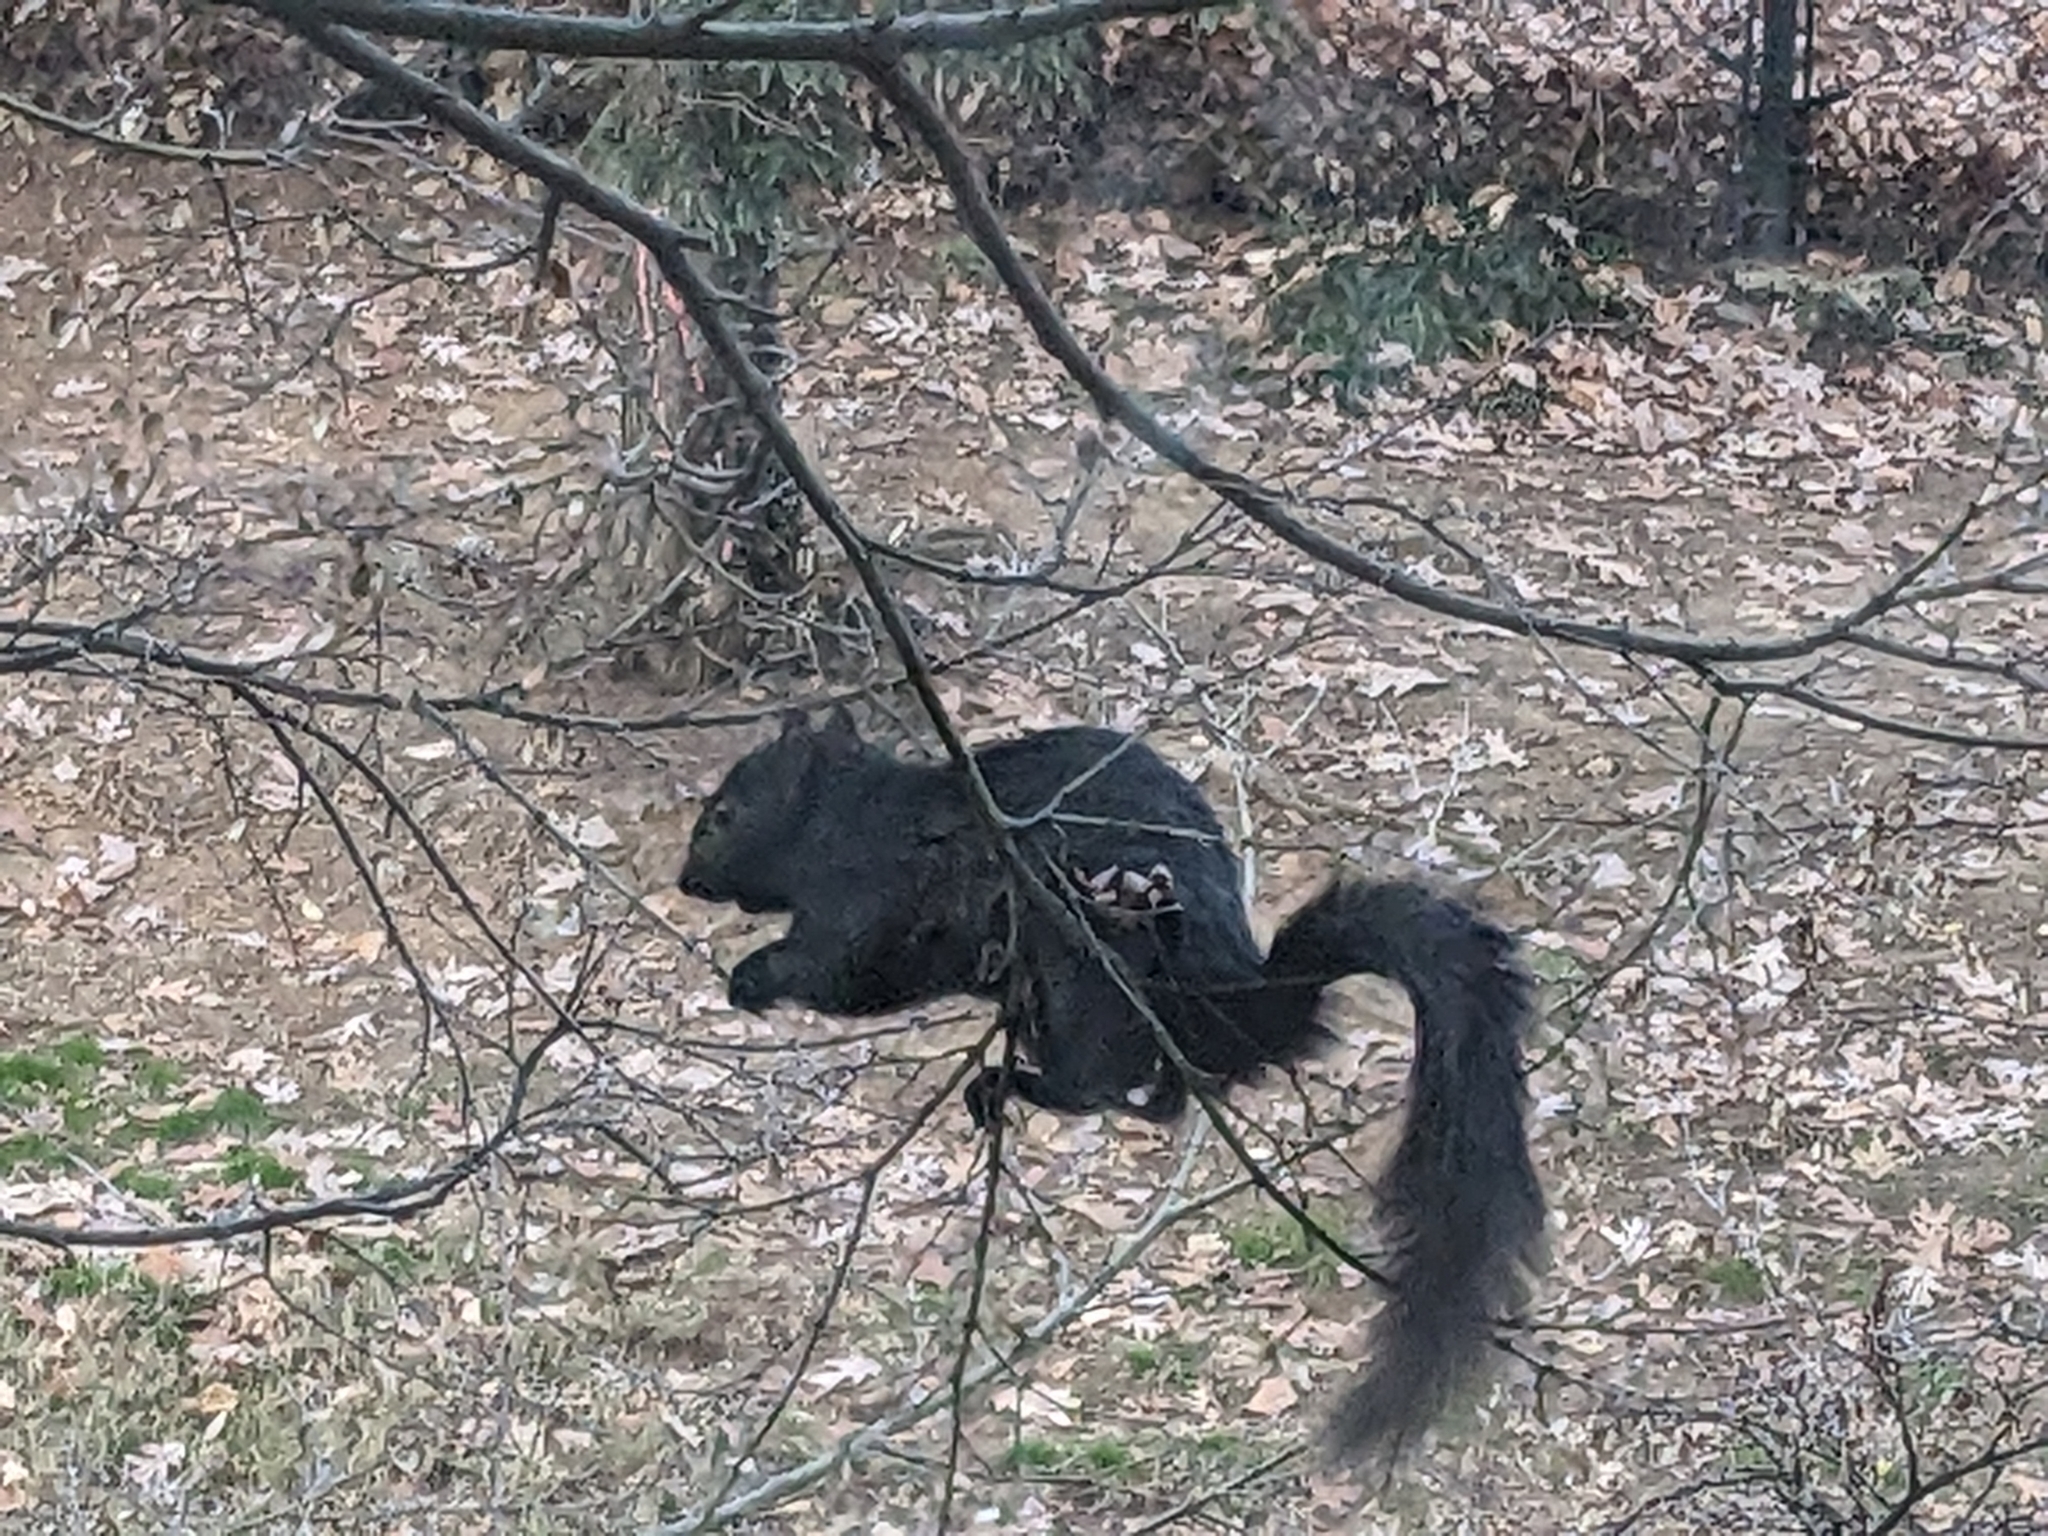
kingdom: Animalia
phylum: Chordata
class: Mammalia
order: Rodentia
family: Sciuridae
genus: Sciurus
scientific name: Sciurus carolinensis
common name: Eastern gray squirrel
